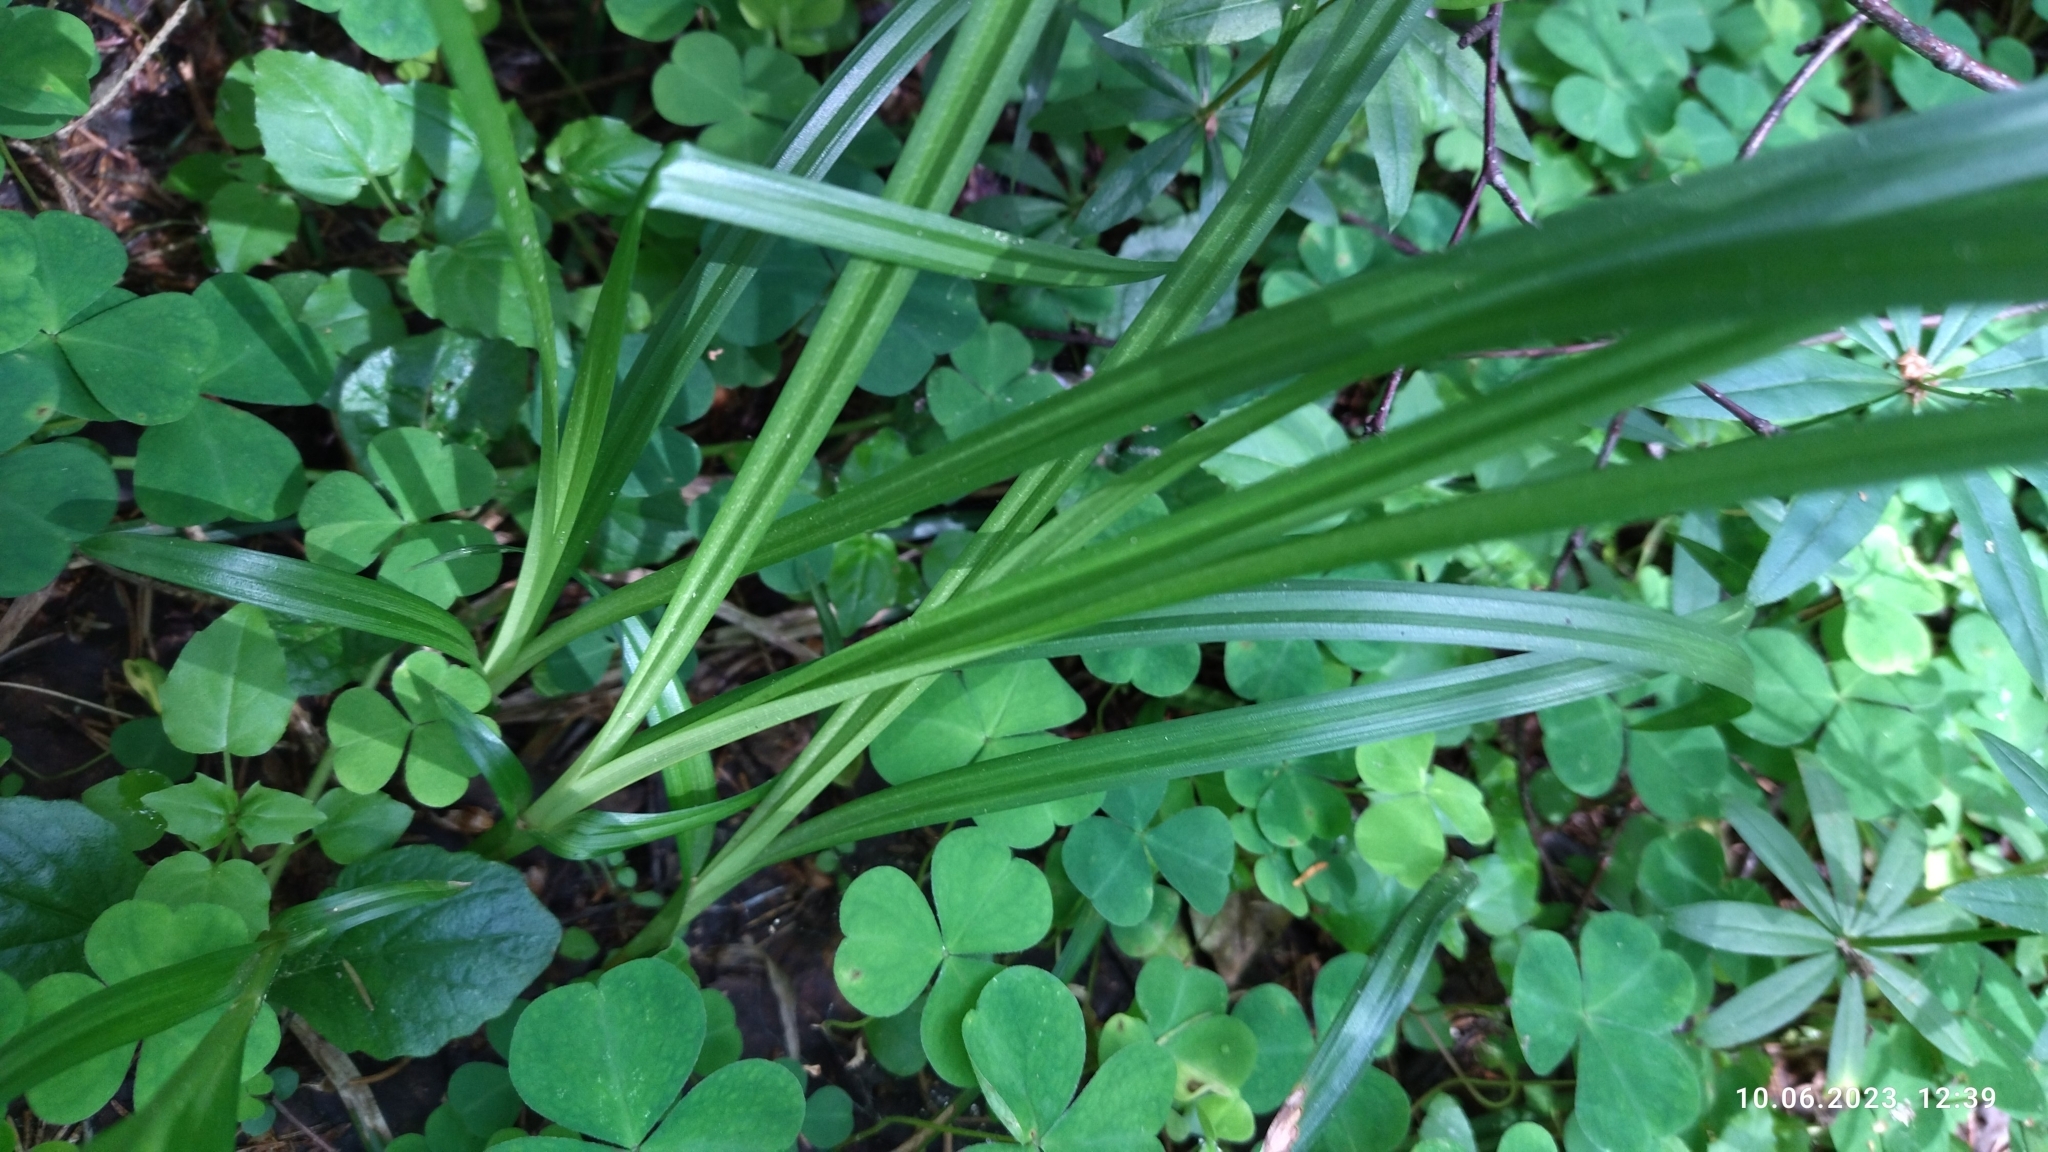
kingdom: Plantae
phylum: Tracheophyta
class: Liliopsida
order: Poales
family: Cyperaceae
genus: Carex
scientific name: Carex sylvatica
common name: Wood-sedge
